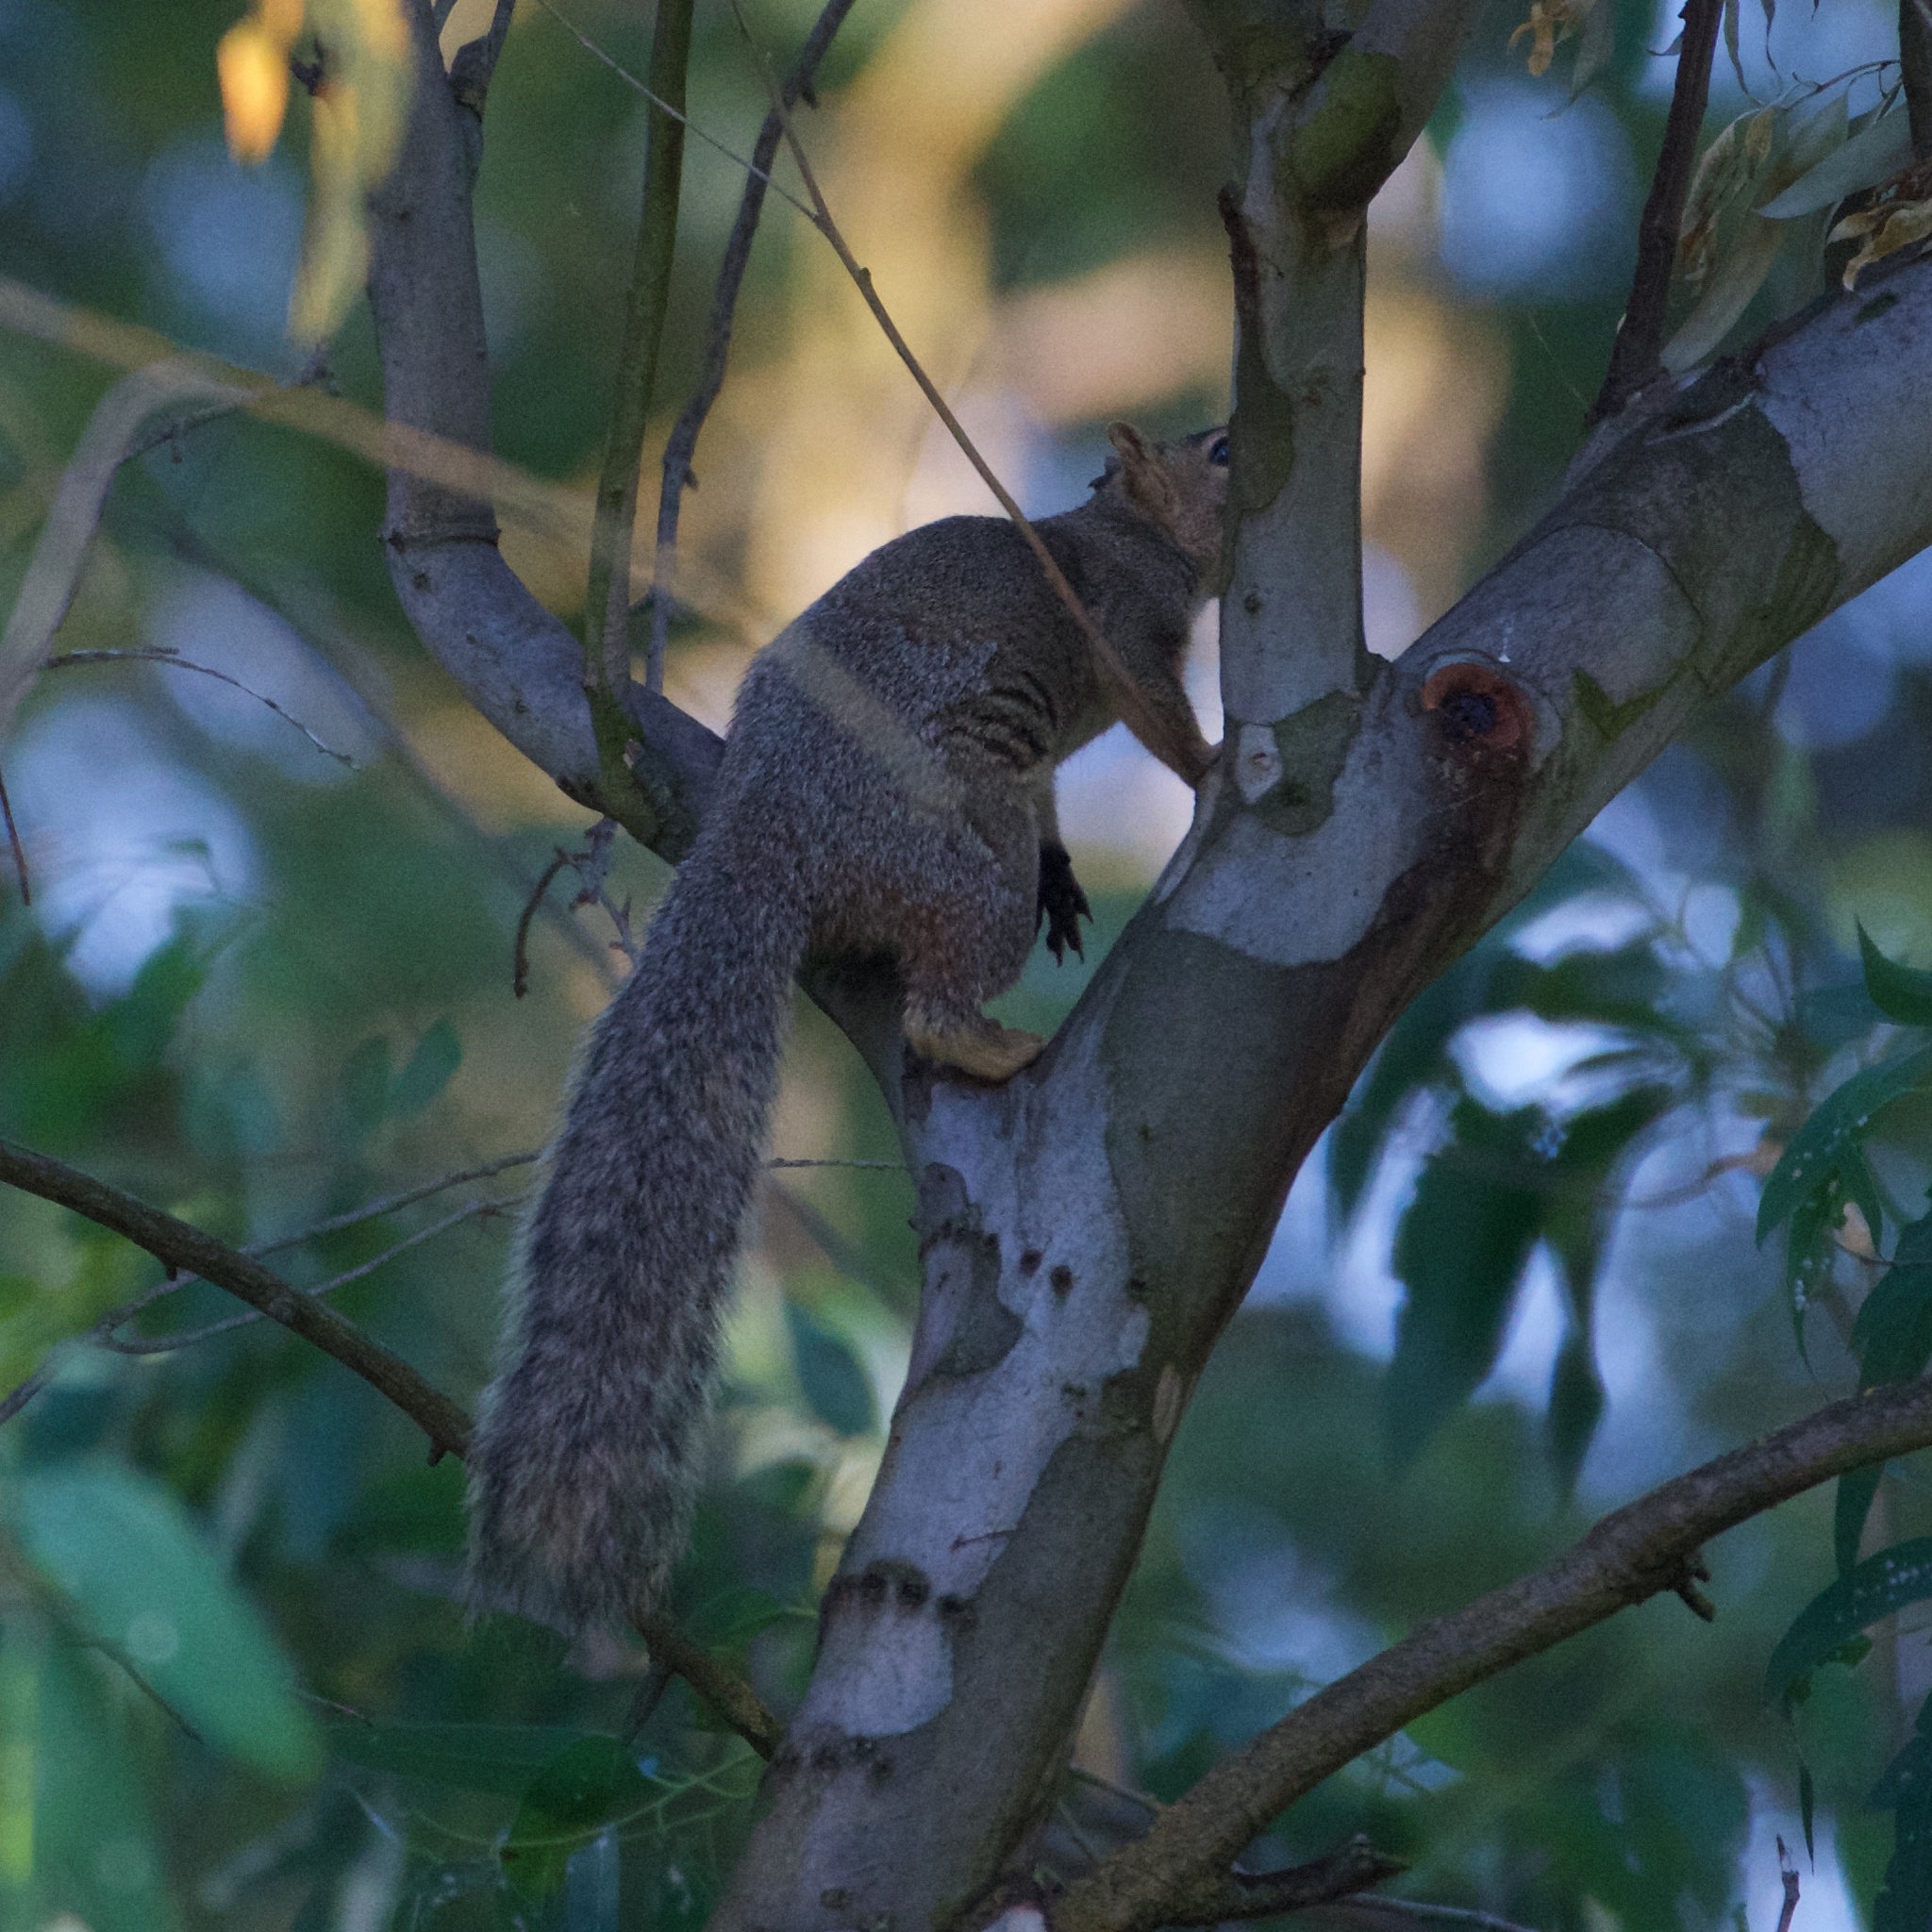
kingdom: Animalia
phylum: Chordata
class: Mammalia
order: Rodentia
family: Sciuridae
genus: Sciurus
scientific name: Sciurus niger
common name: Fox squirrel
